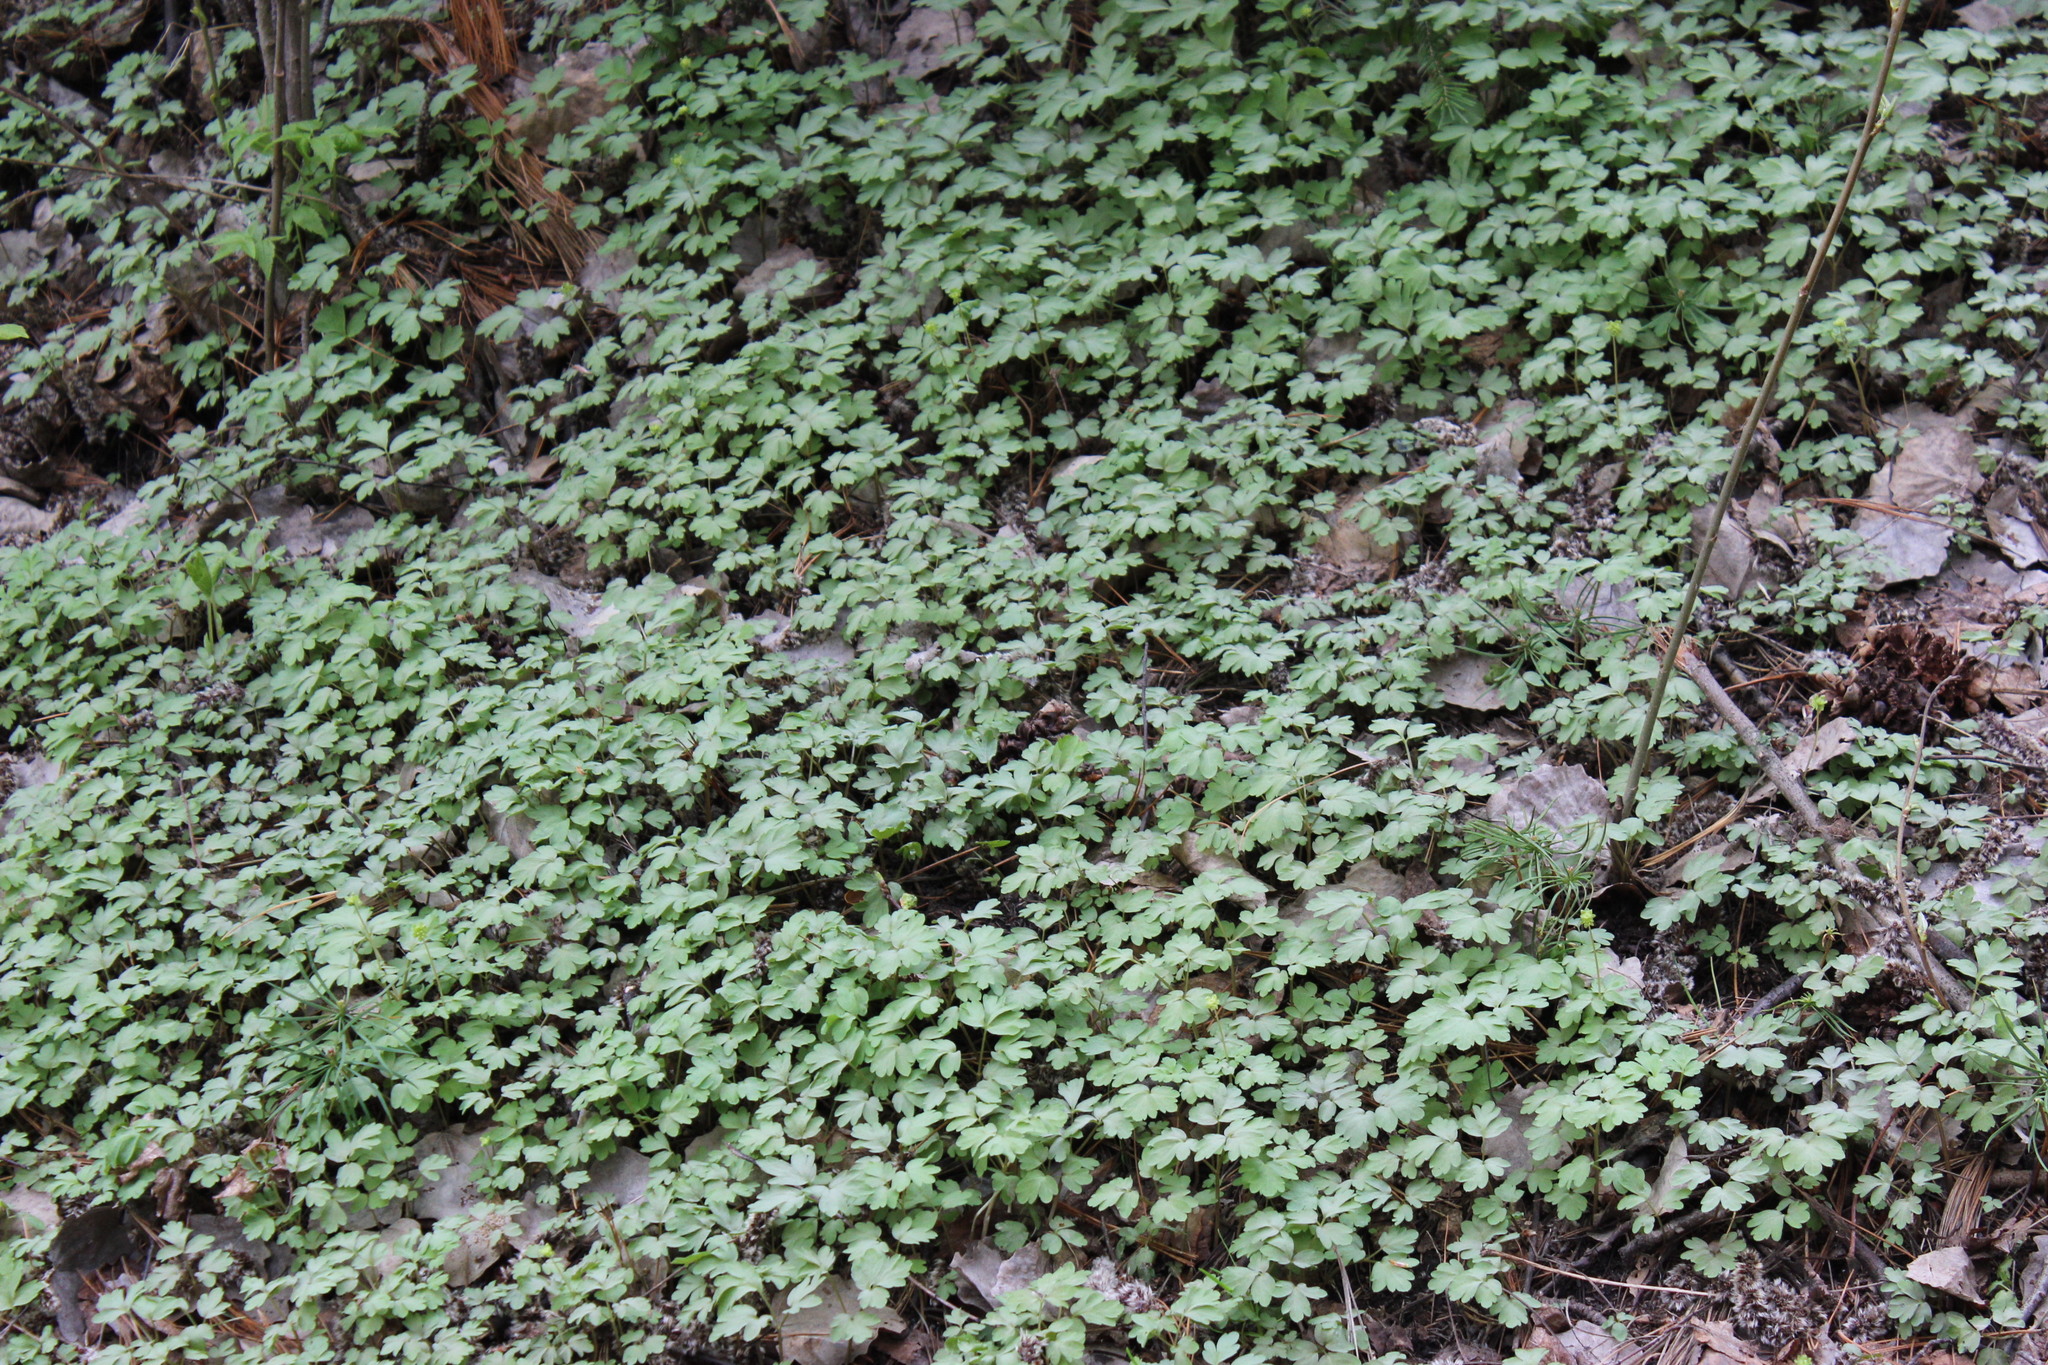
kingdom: Plantae
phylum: Tracheophyta
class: Magnoliopsida
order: Dipsacales
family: Viburnaceae
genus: Adoxa
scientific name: Adoxa moschatellina
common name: Moschatel
